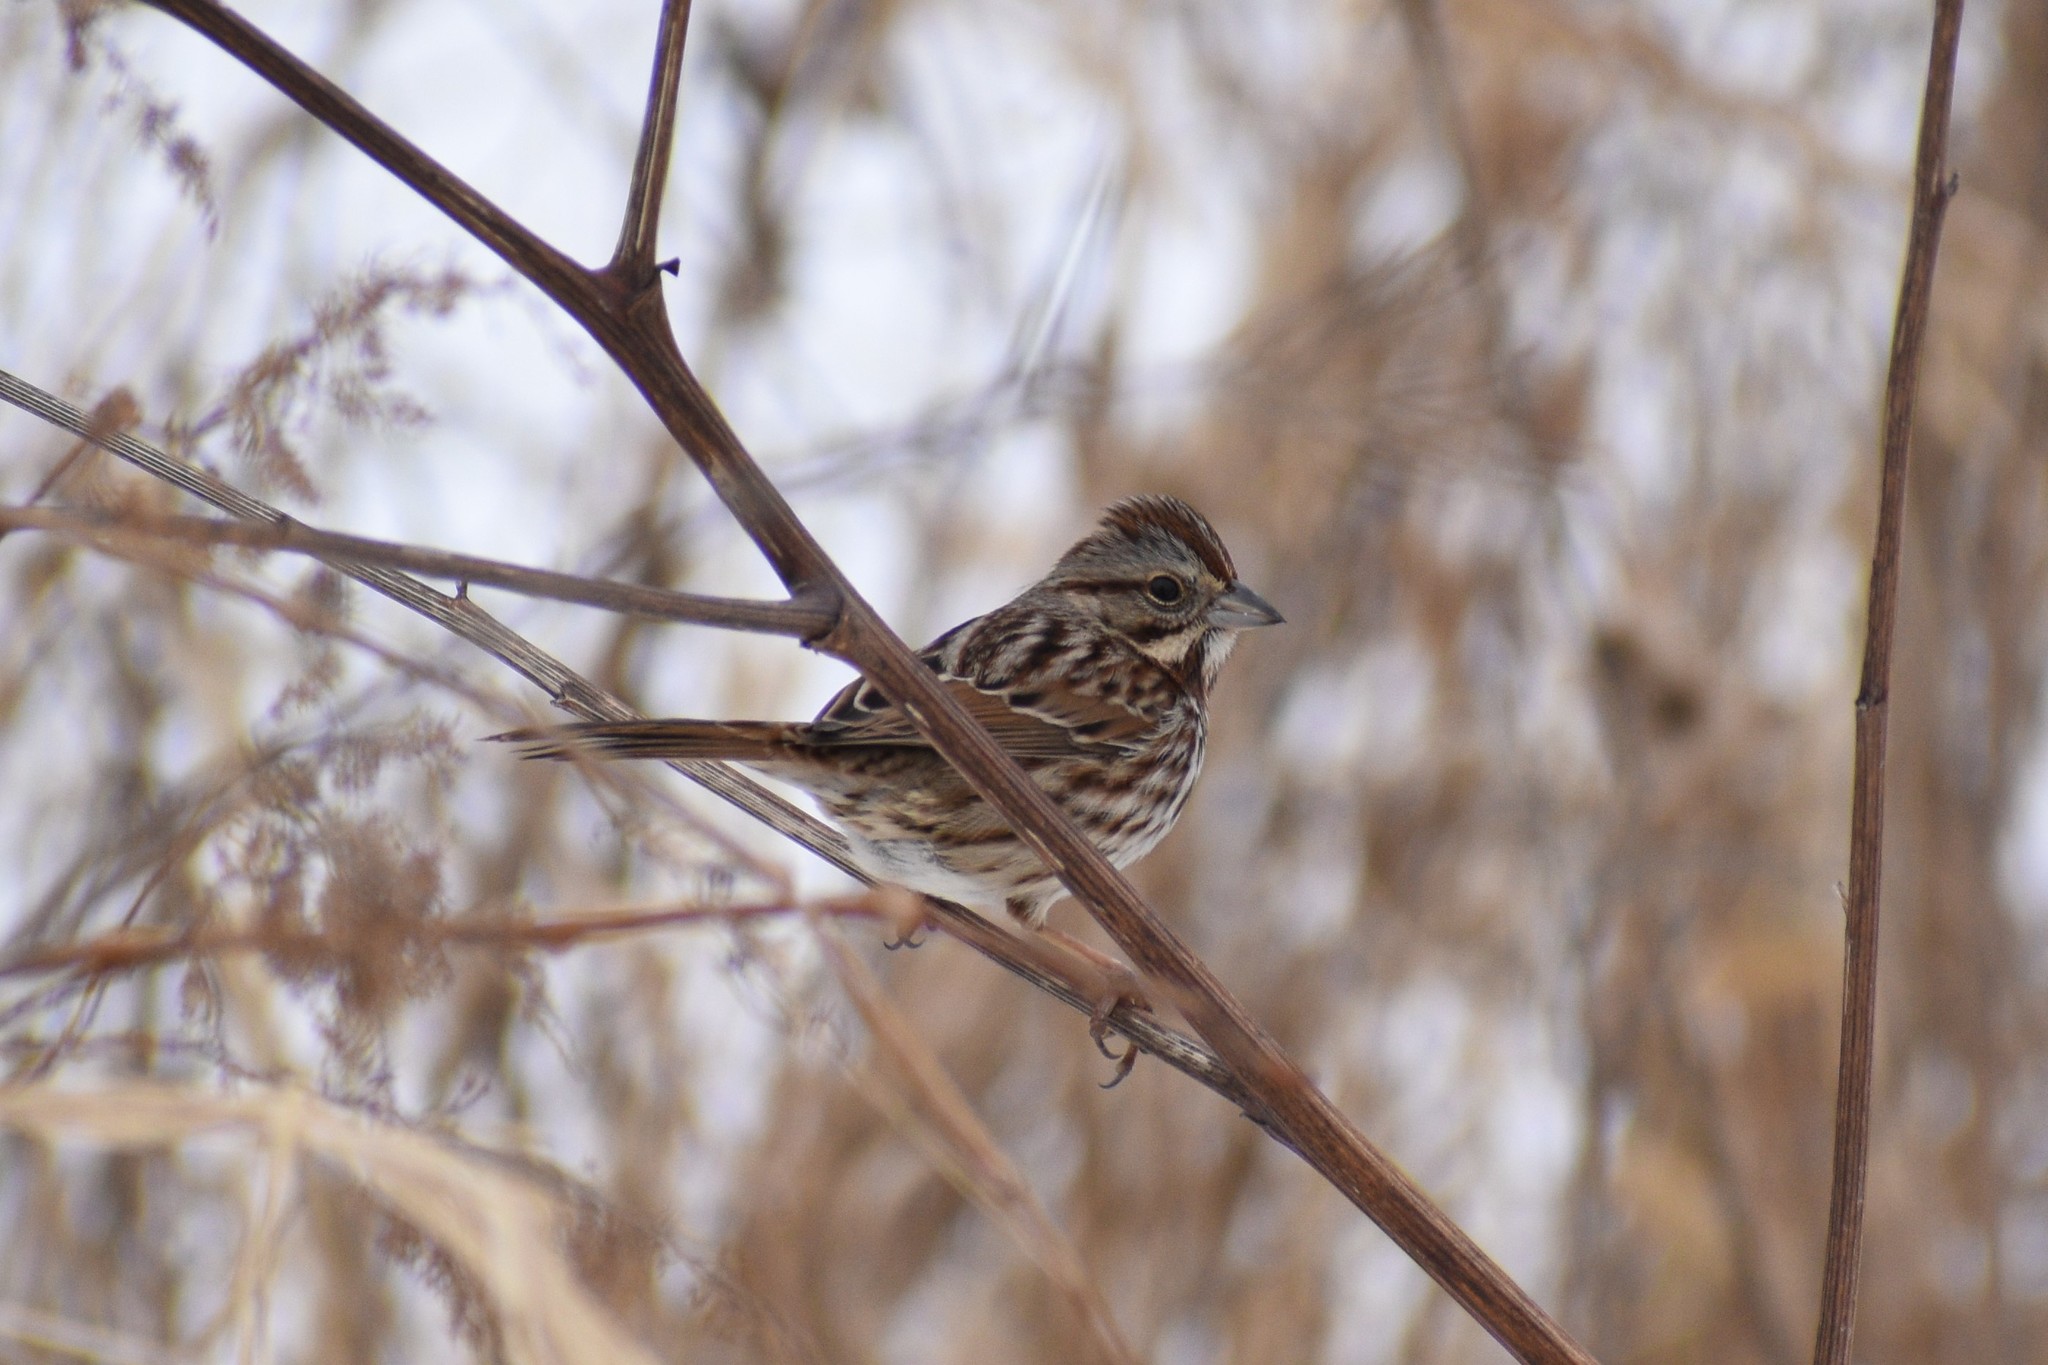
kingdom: Animalia
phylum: Chordata
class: Aves
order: Passeriformes
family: Passerellidae
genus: Melospiza
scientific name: Melospiza melodia
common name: Song sparrow
